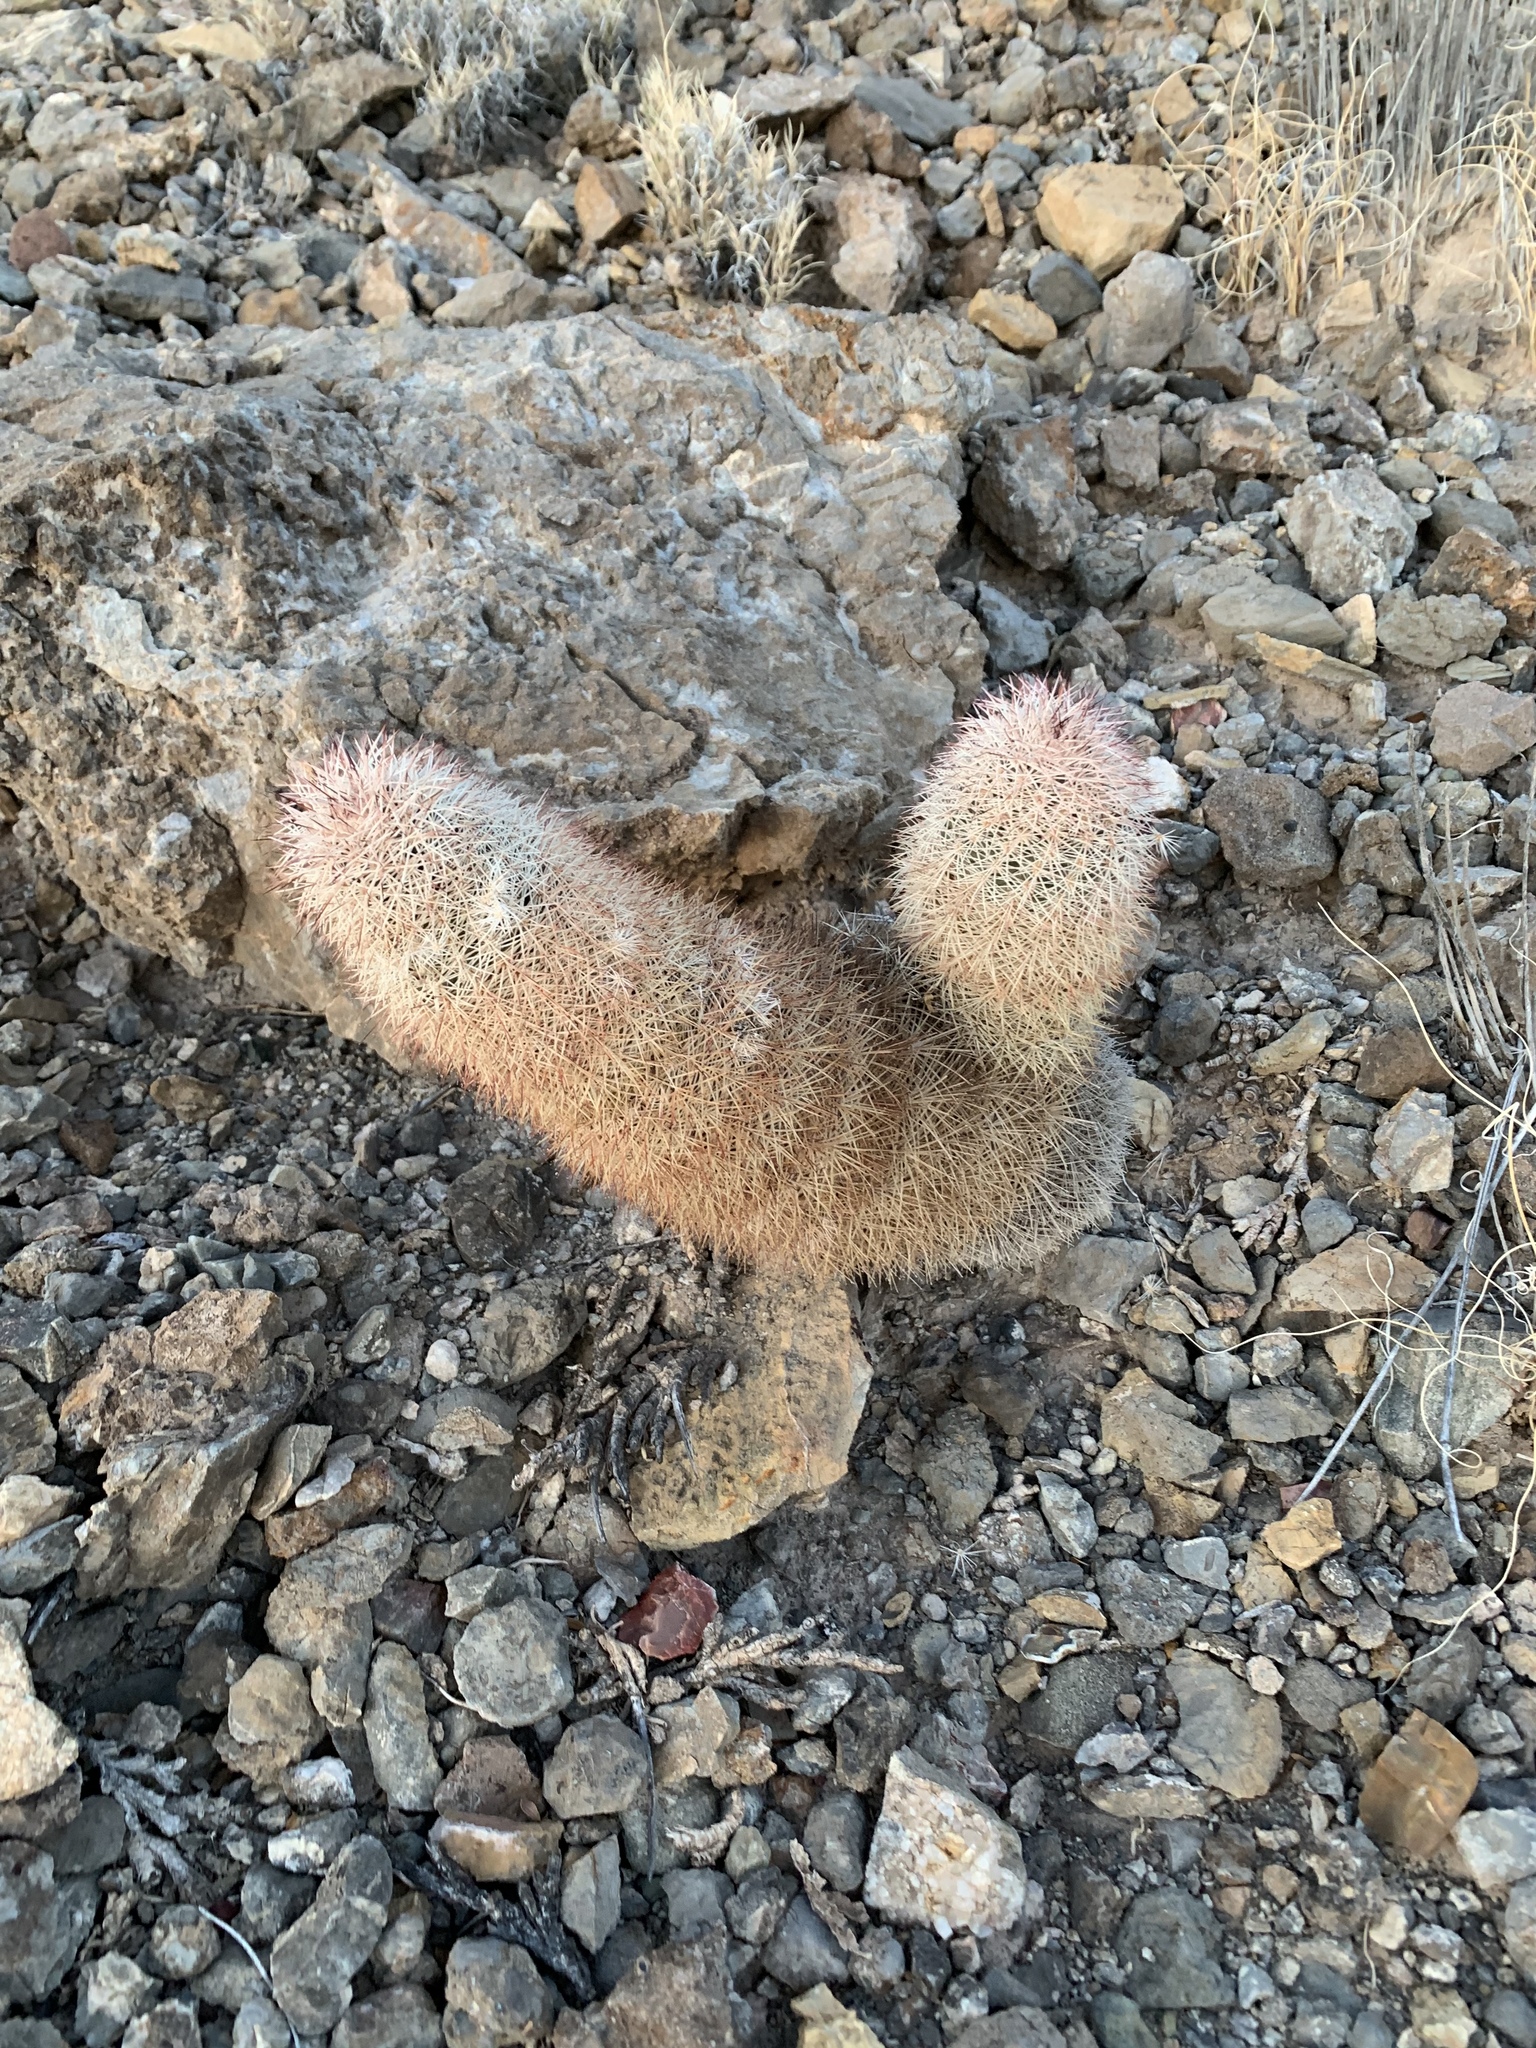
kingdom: Plantae
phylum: Tracheophyta
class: Magnoliopsida
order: Caryophyllales
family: Cactaceae
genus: Echinocereus
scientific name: Echinocereus dasyacanthus
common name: Spiny hedgehog cactus
